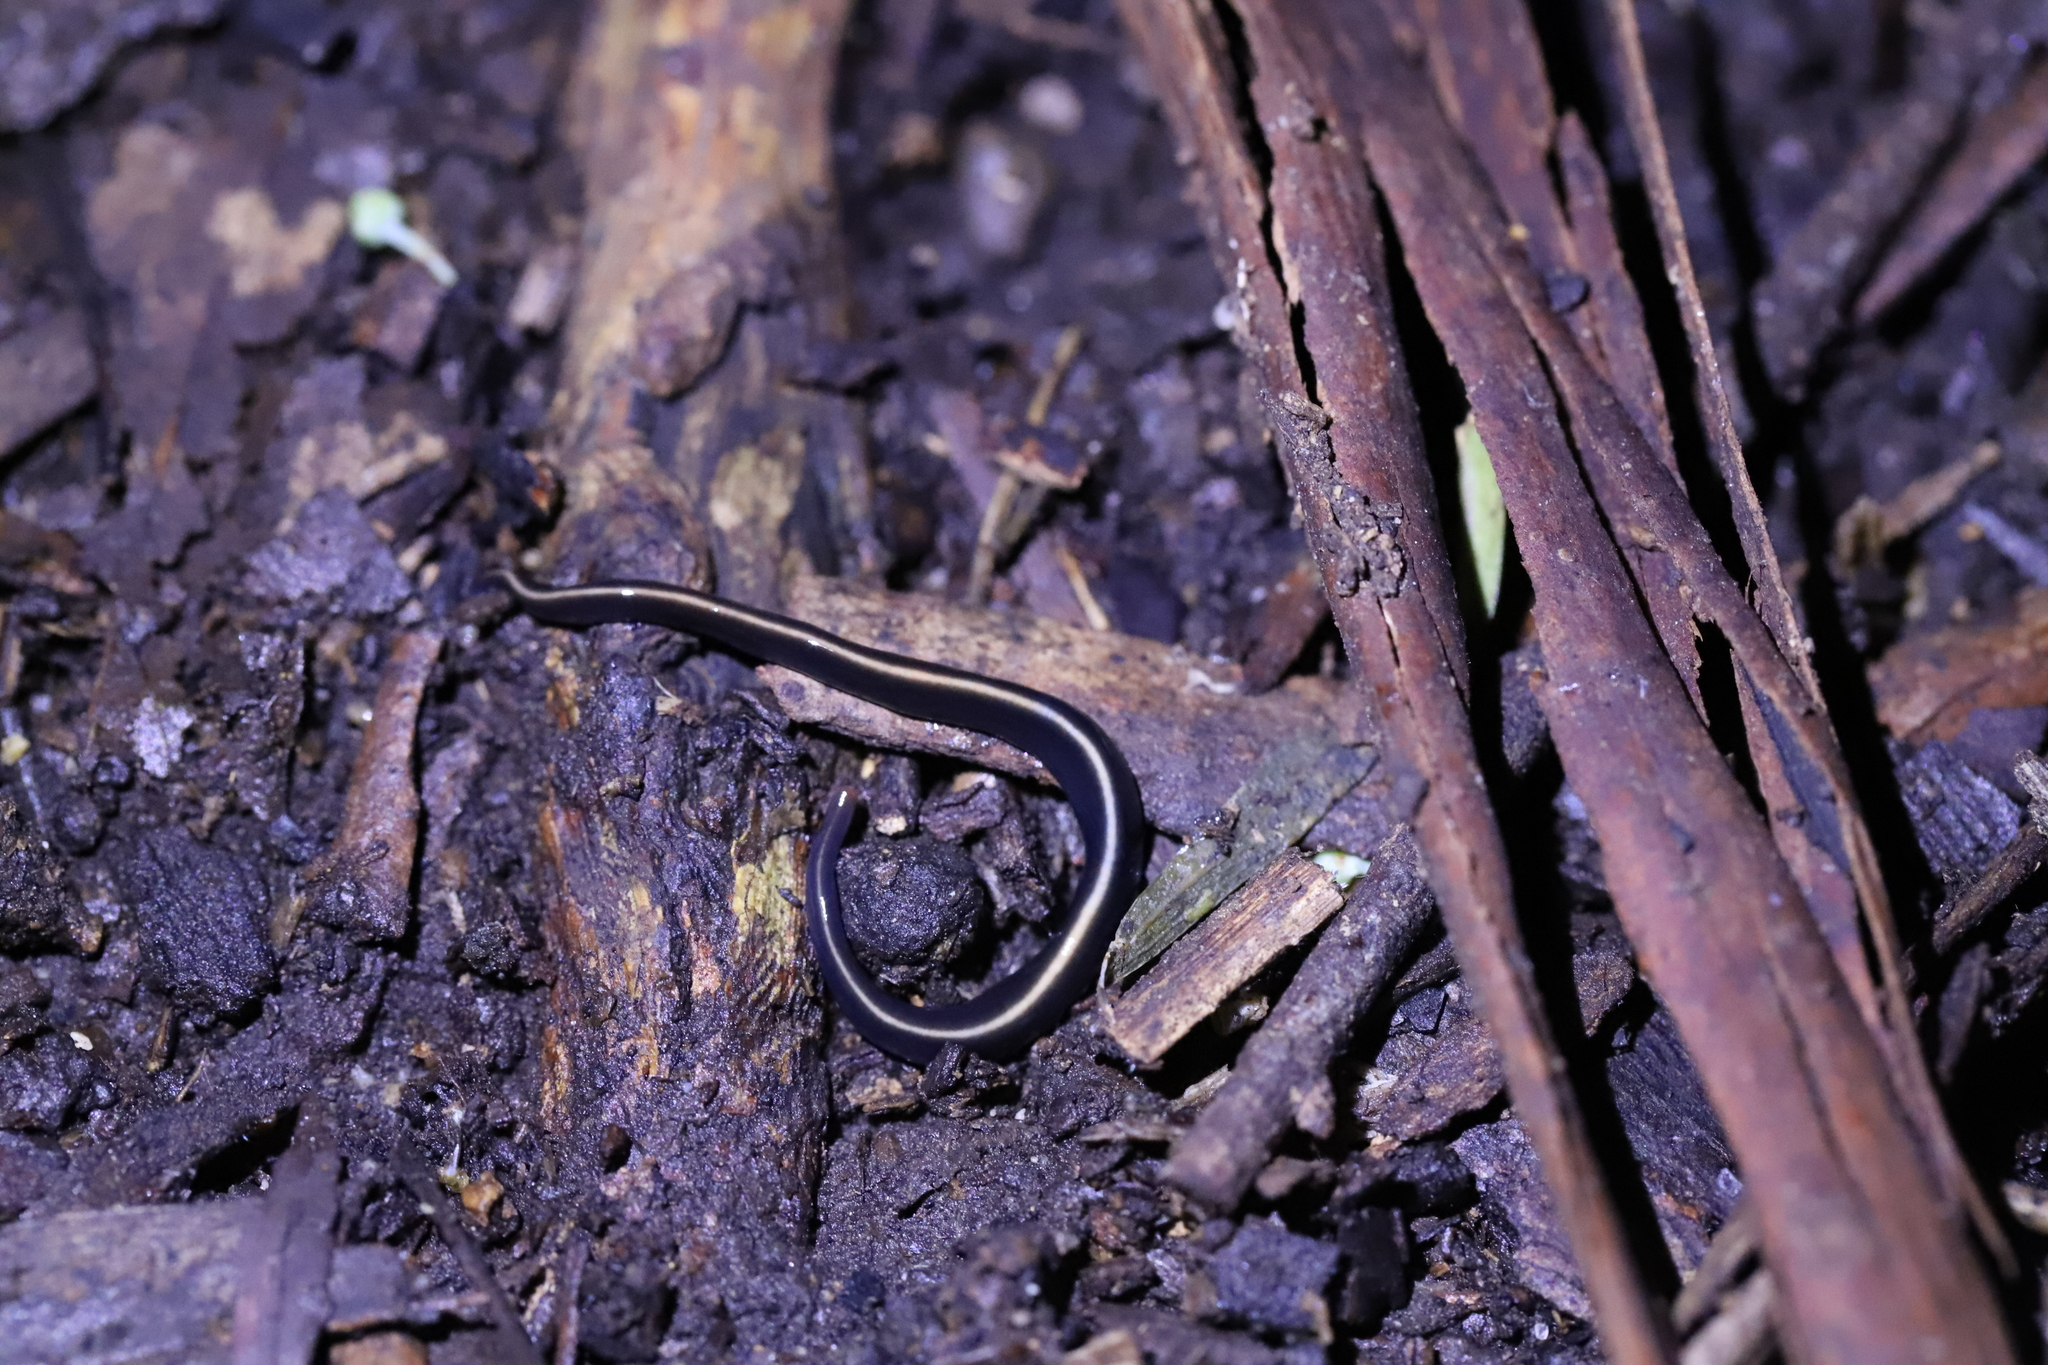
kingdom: Animalia
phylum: Platyhelminthes
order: Tricladida
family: Geoplanidae
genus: Caenoplana
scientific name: Caenoplana coerulea
